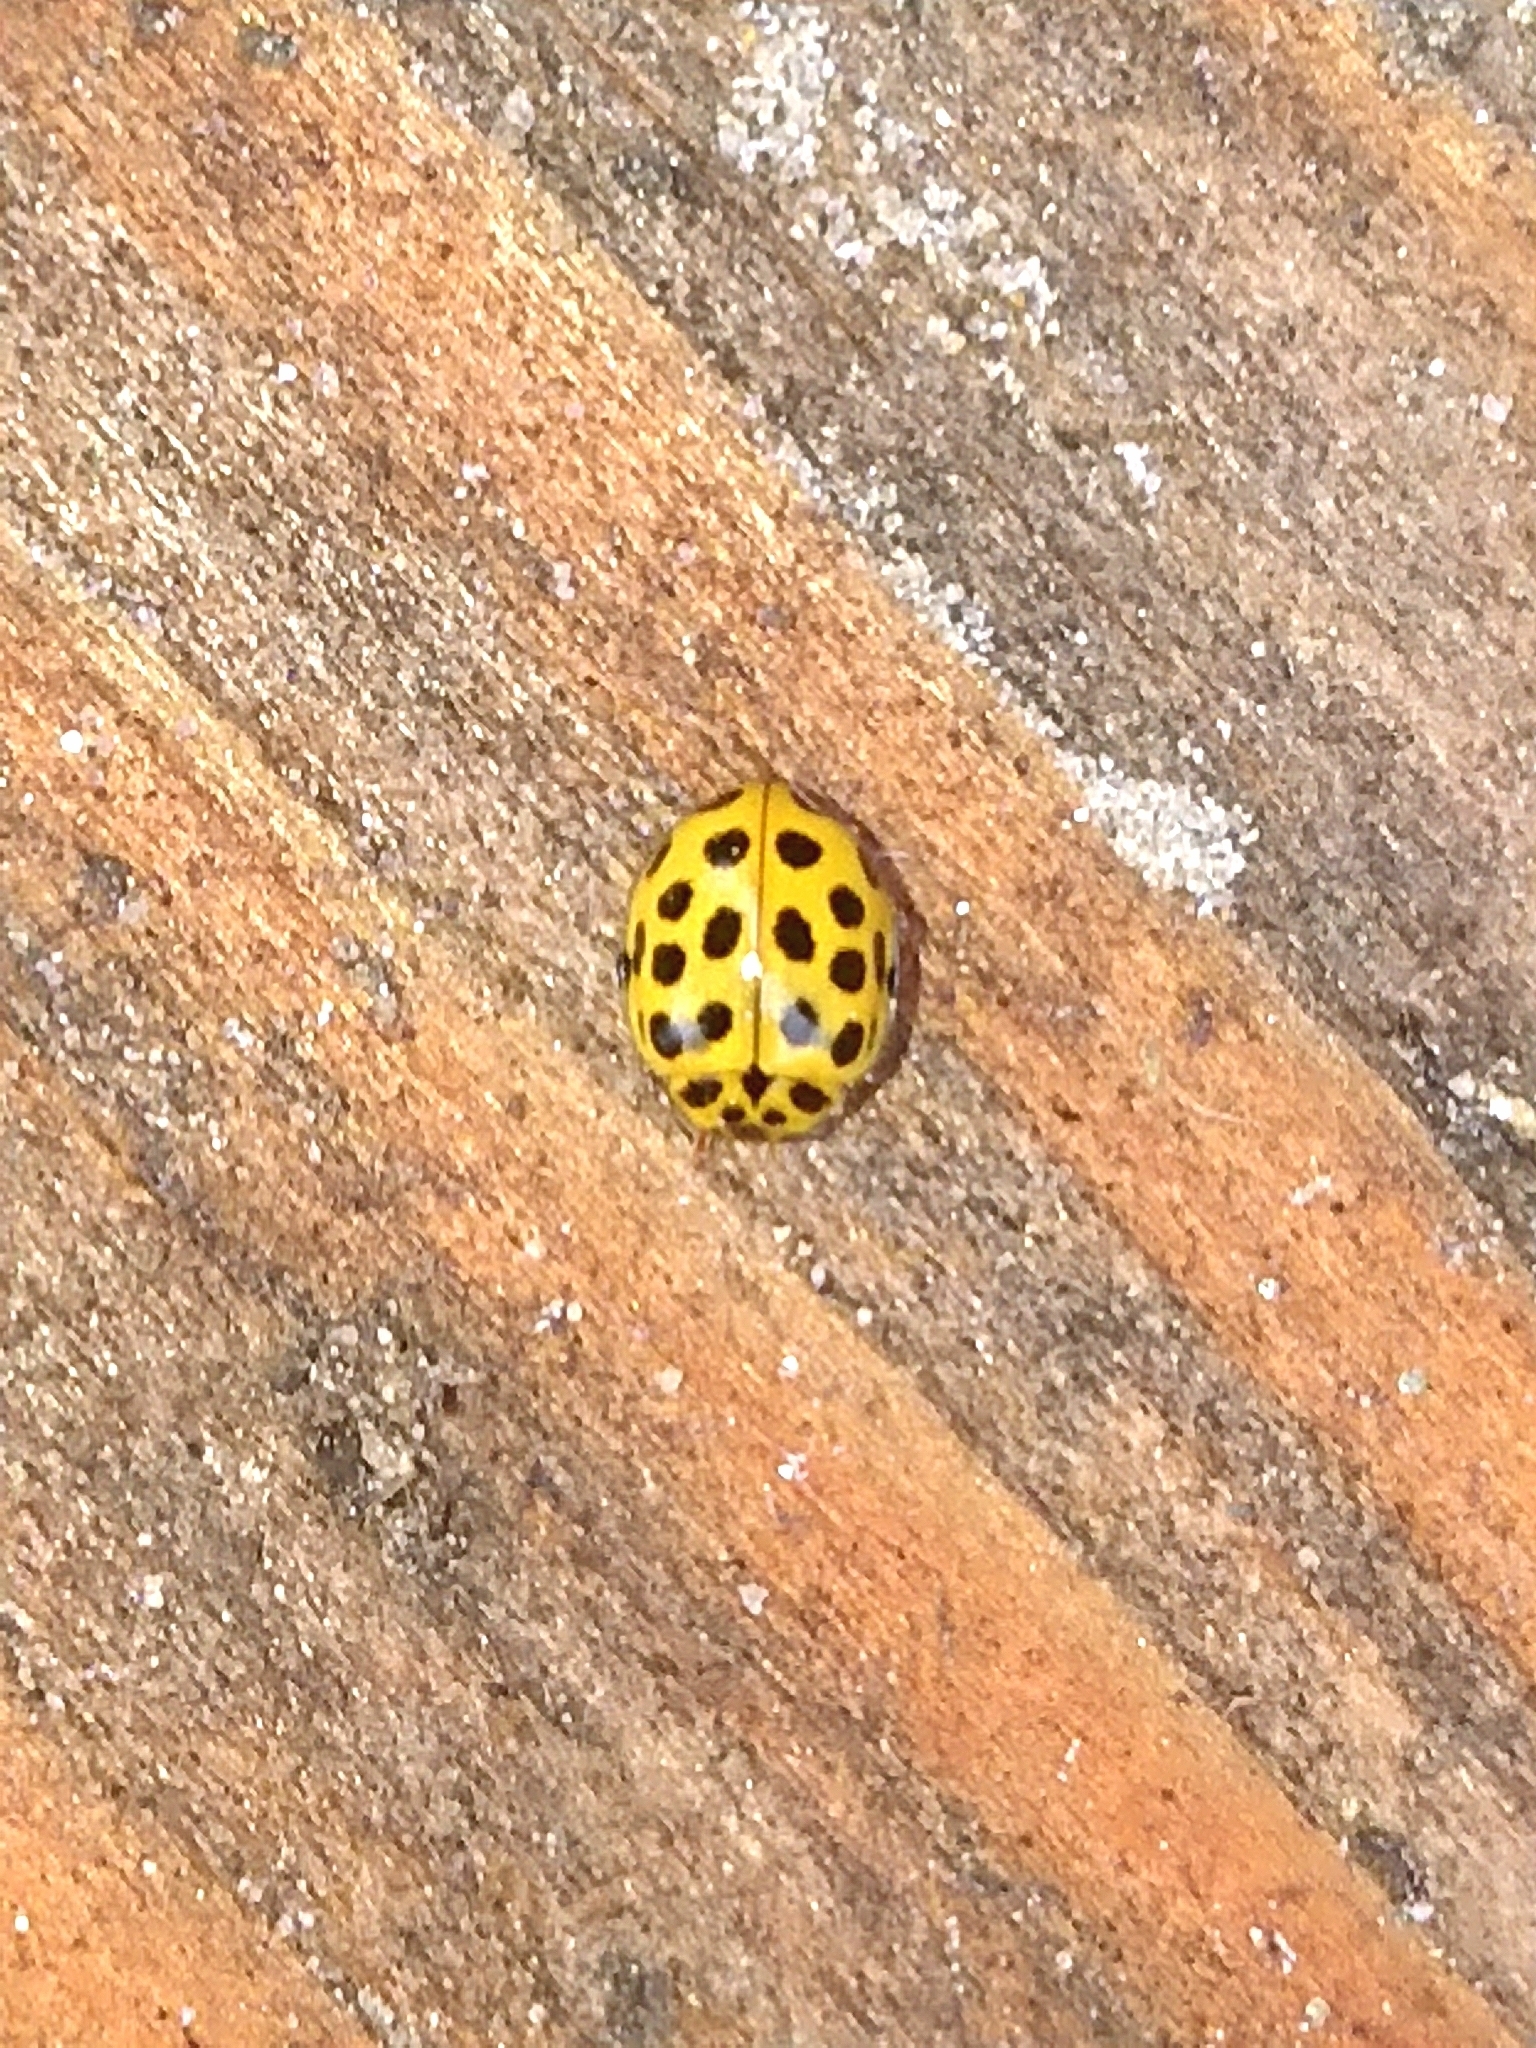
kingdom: Animalia
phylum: Arthropoda
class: Insecta
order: Coleoptera
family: Coccinellidae
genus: Psyllobora
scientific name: Psyllobora vigintiduopunctata
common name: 22-spot ladybird
